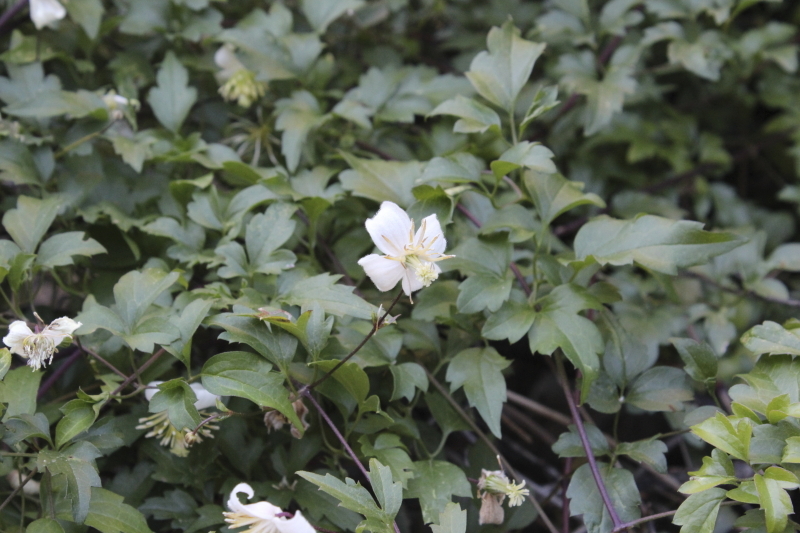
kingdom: Plantae
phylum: Tracheophyta
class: Magnoliopsida
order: Ranunculales
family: Ranunculaceae
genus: Clematis
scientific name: Clematis brachiata
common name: Traveler's-joy
